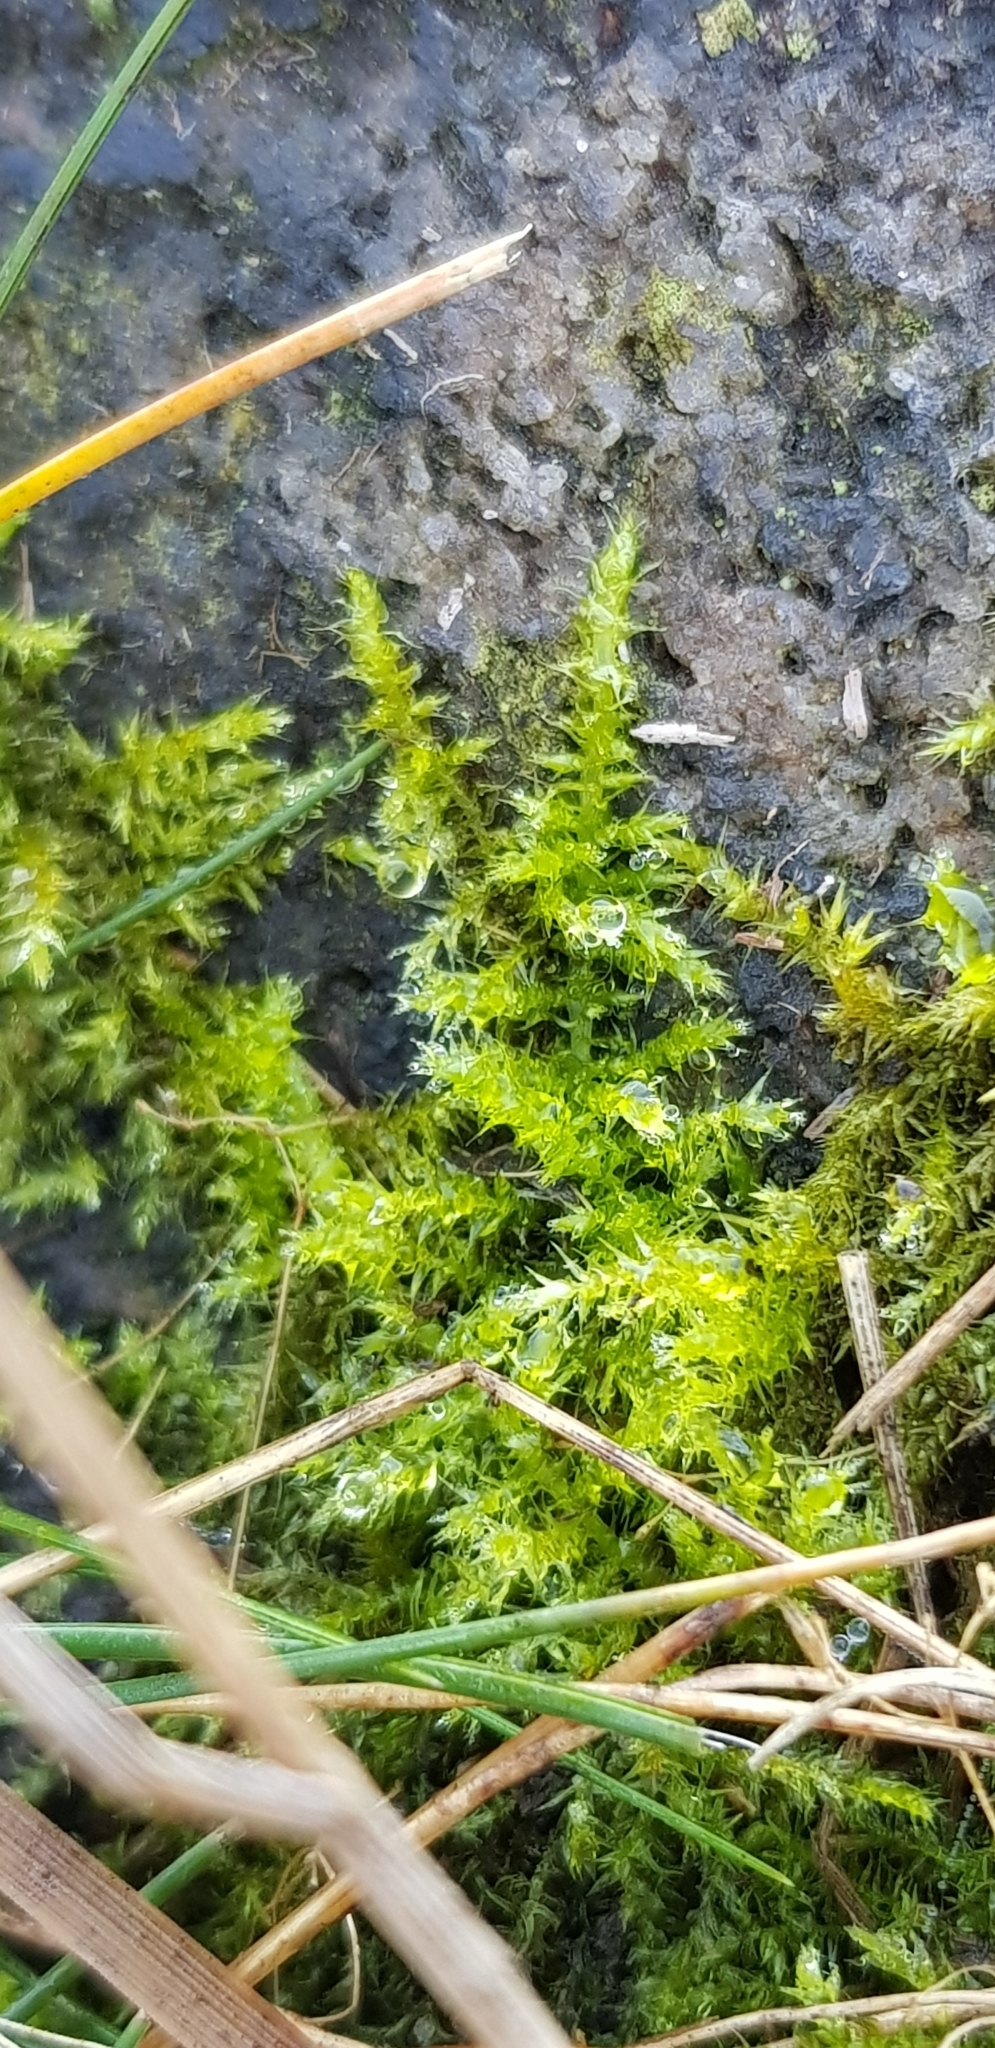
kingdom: Plantae
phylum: Bryophyta
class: Bryopsida
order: Hypnales
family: Brachytheciaceae
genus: Kindbergia
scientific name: Kindbergia praelonga
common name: Slender beaked moss
